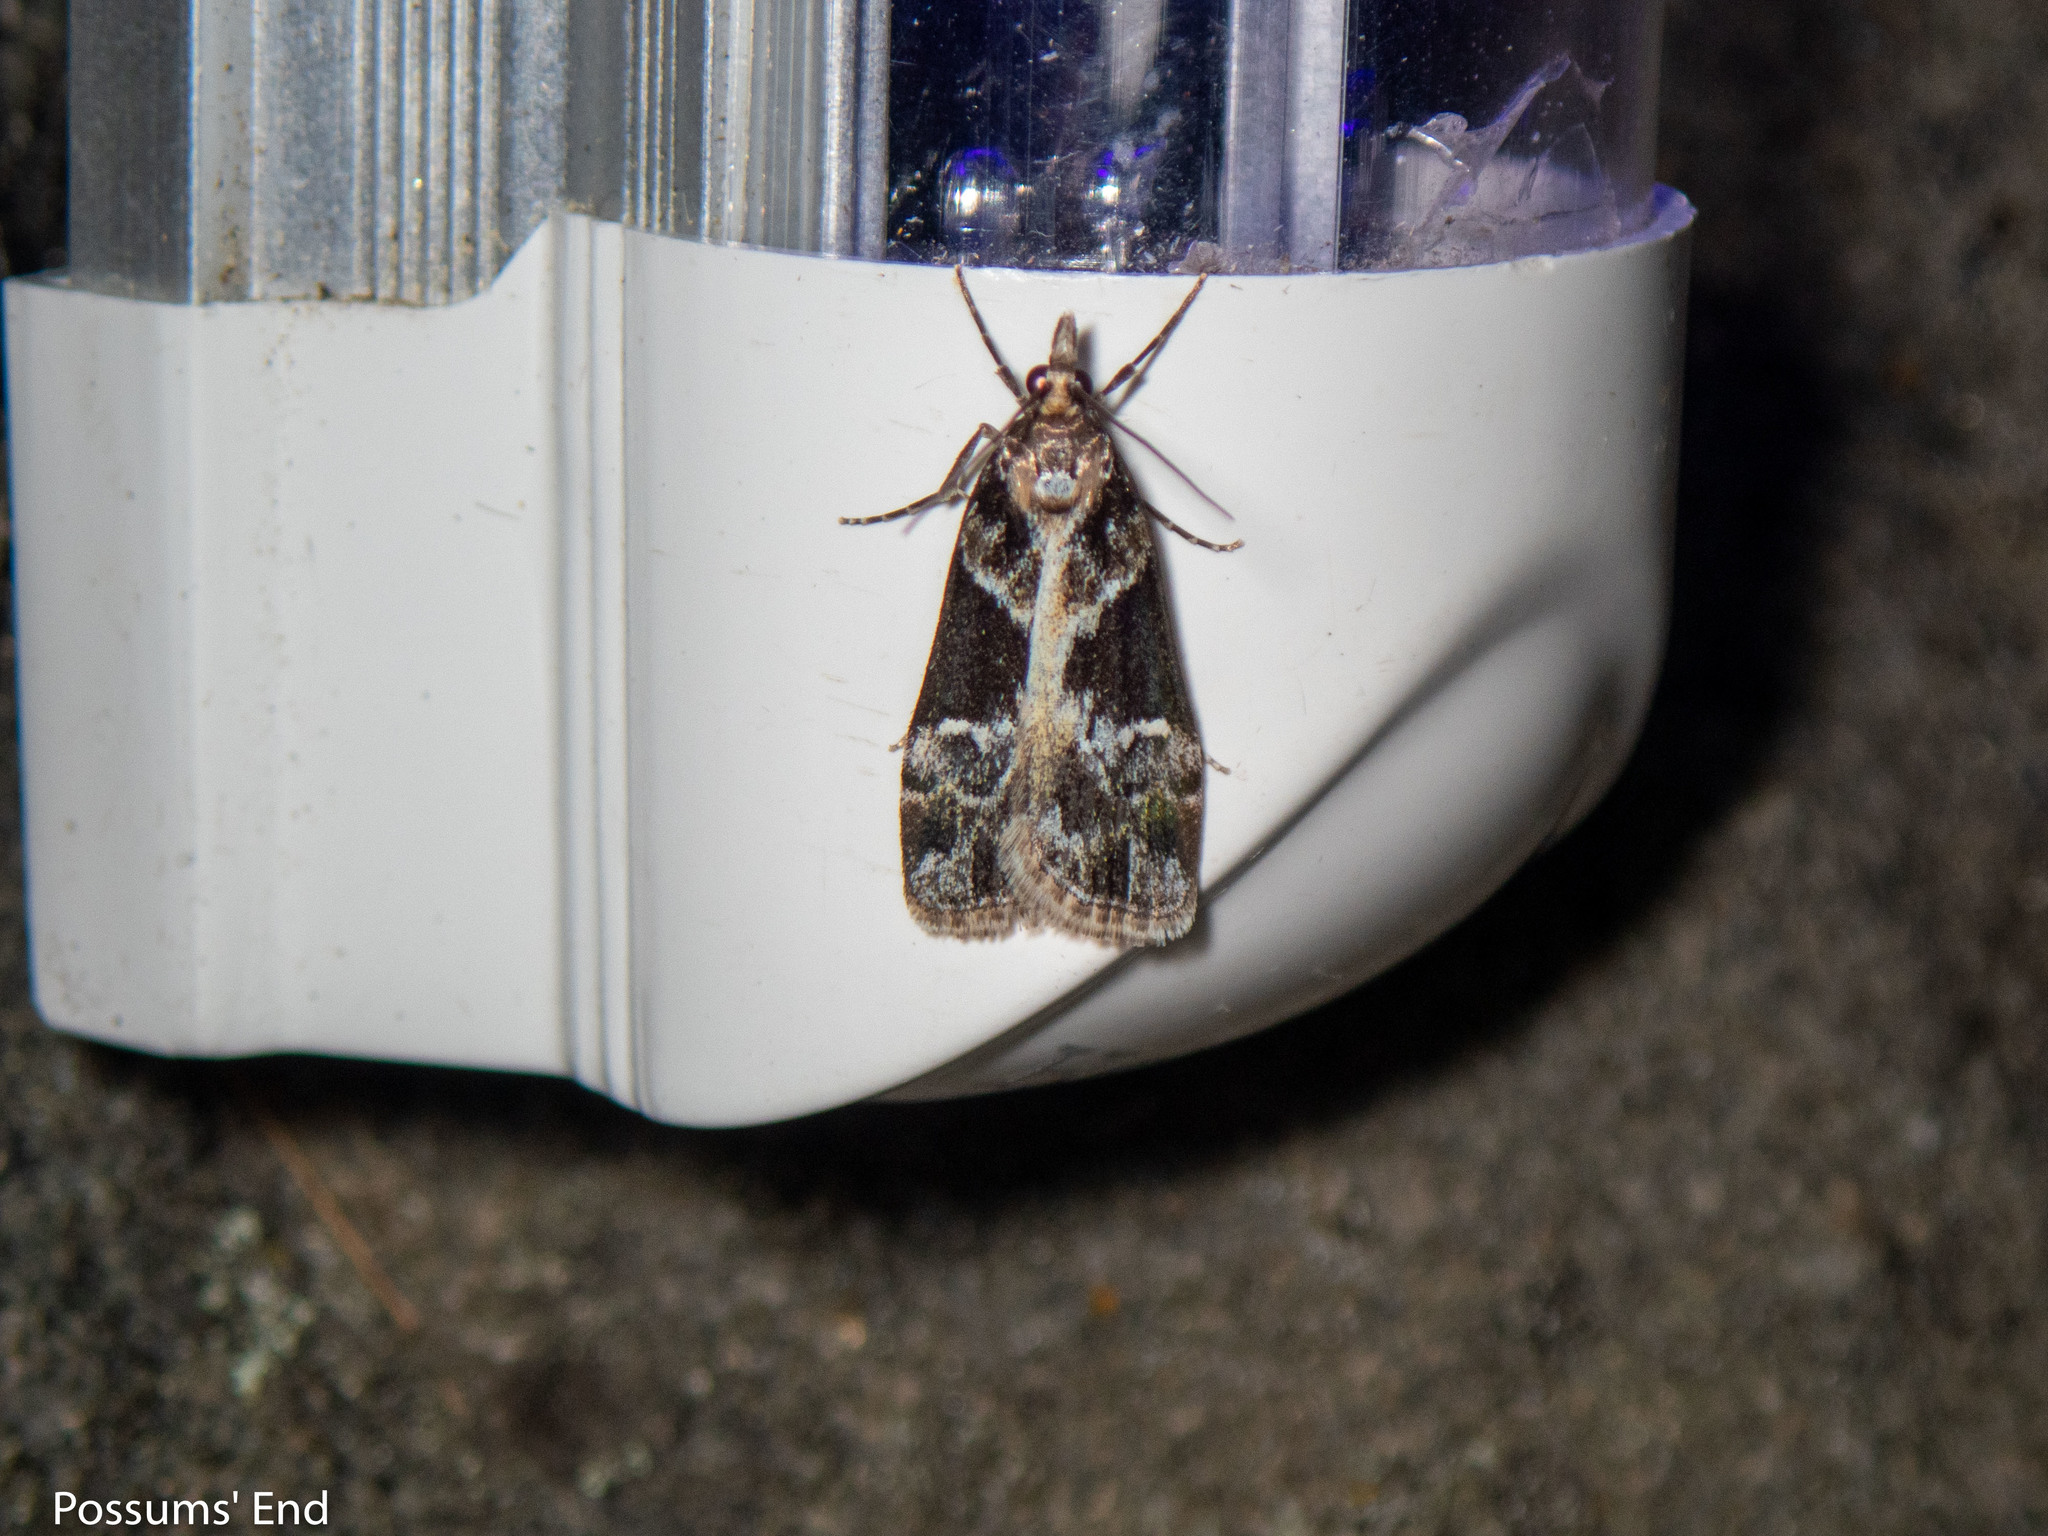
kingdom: Animalia
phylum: Arthropoda
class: Insecta
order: Lepidoptera
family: Crambidae
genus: Eudonia
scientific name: Eudonia melanaegis
